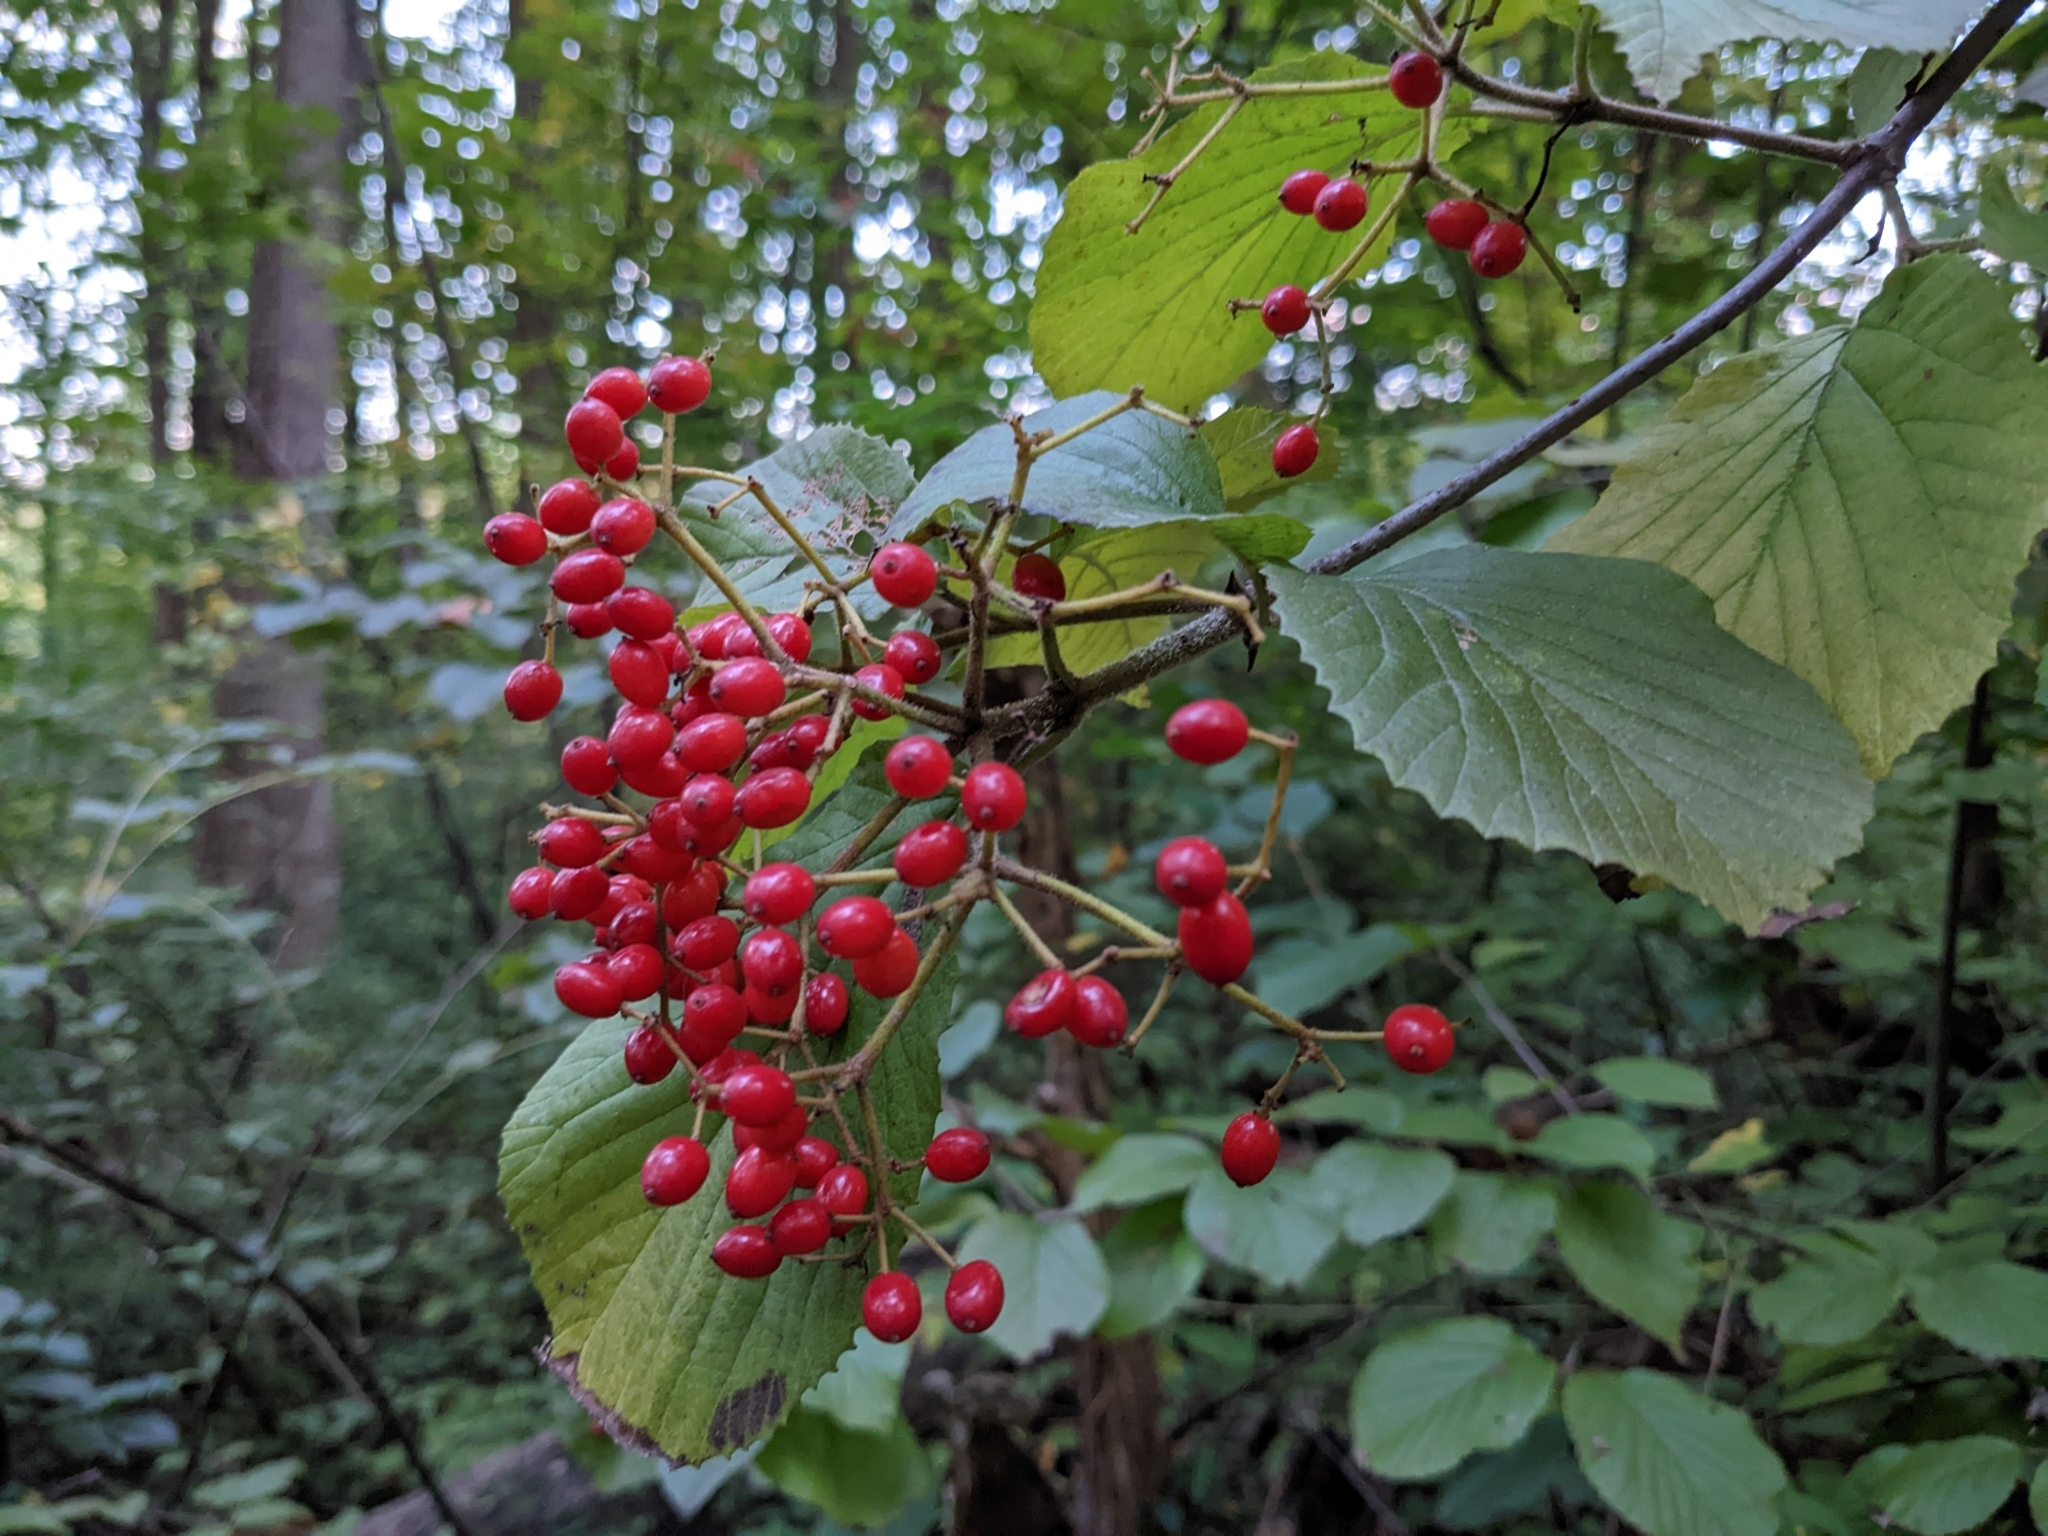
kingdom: Plantae
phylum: Tracheophyta
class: Magnoliopsida
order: Dipsacales
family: Viburnaceae
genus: Viburnum
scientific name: Viburnum dilatatum
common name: Linden arrowwood
